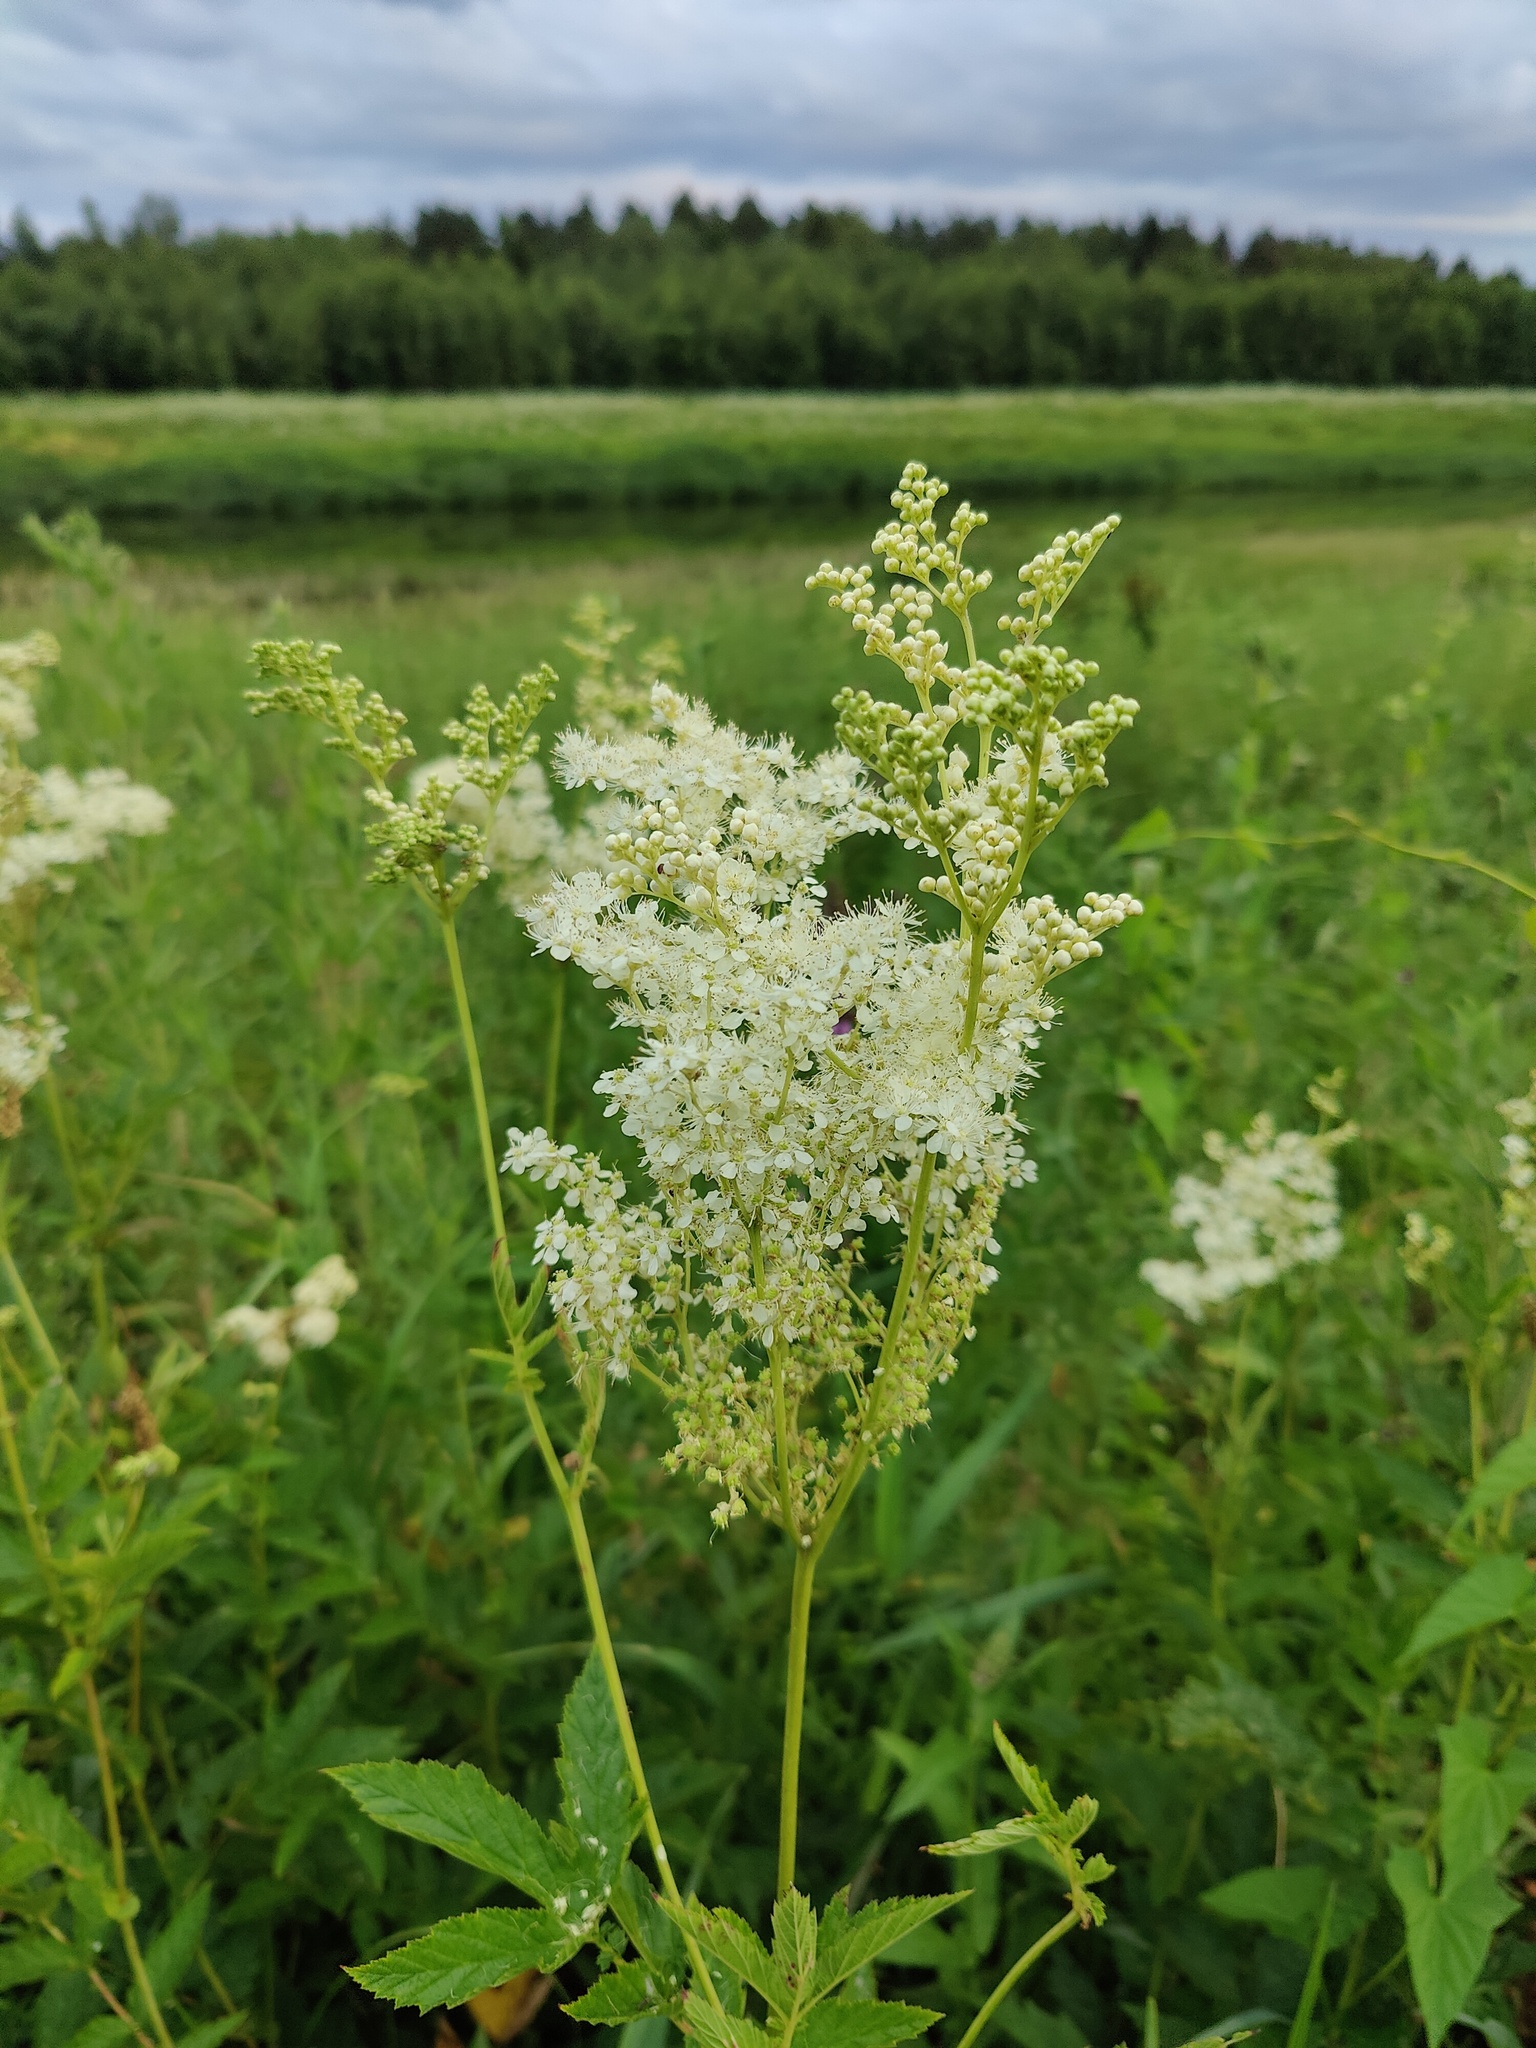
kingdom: Plantae
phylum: Tracheophyta
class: Magnoliopsida
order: Rosales
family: Rosaceae
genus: Filipendula
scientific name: Filipendula ulmaria
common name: Meadowsweet
